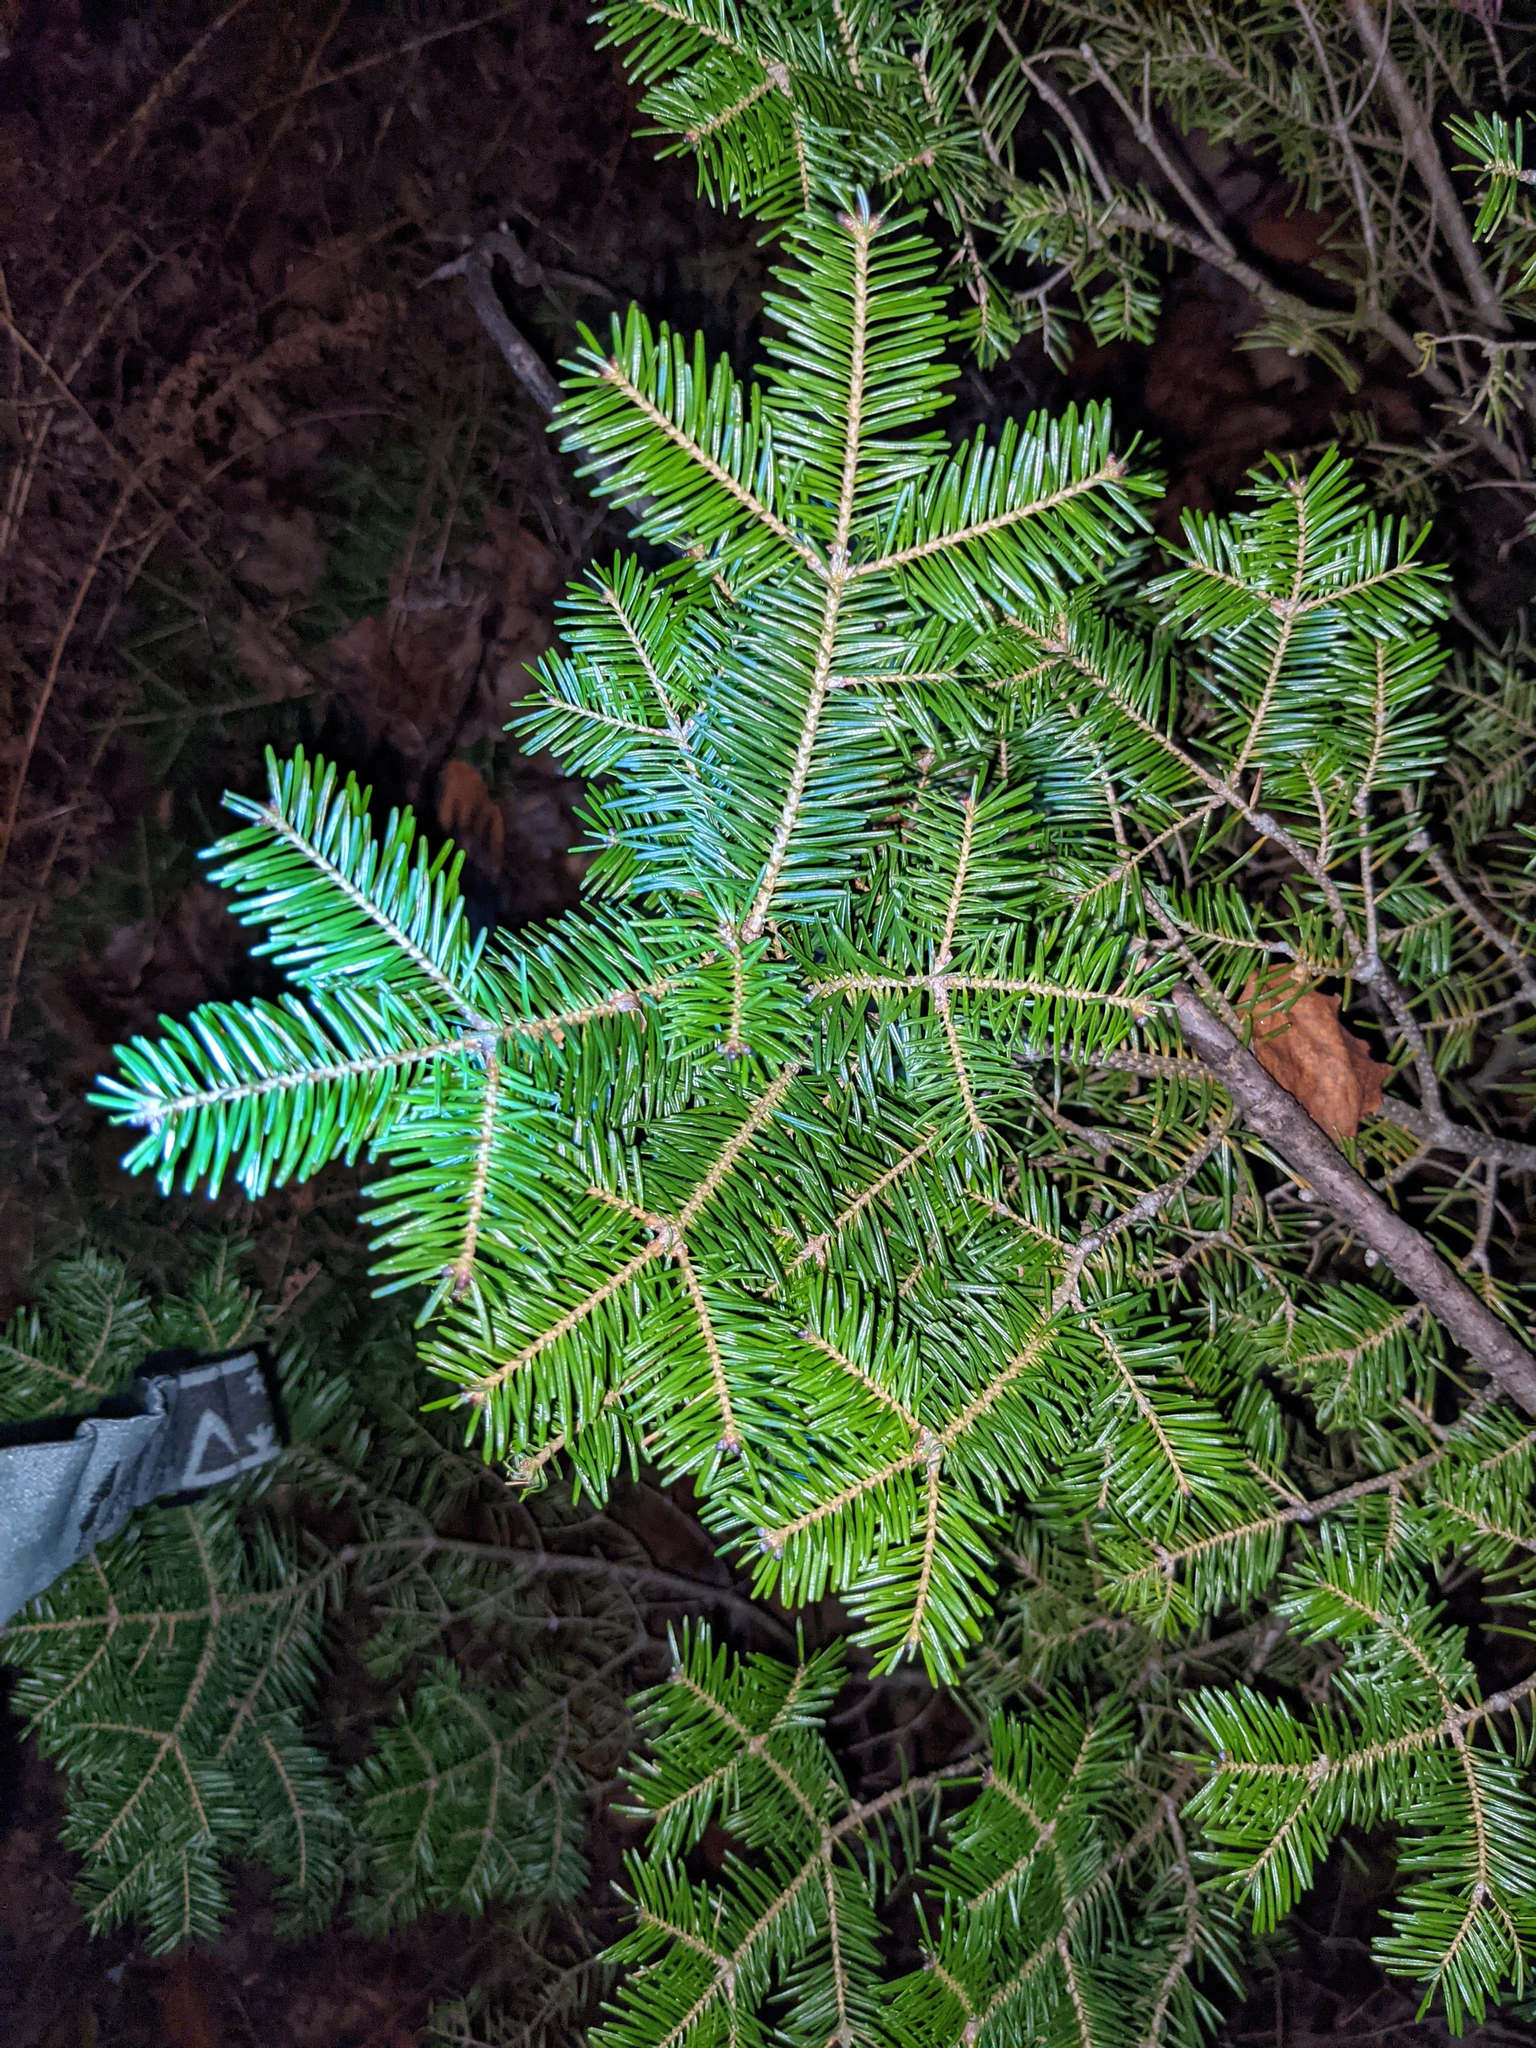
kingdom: Plantae
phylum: Tracheophyta
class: Pinopsida
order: Pinales
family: Pinaceae
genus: Abies
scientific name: Abies balsamea
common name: Balsam fir
